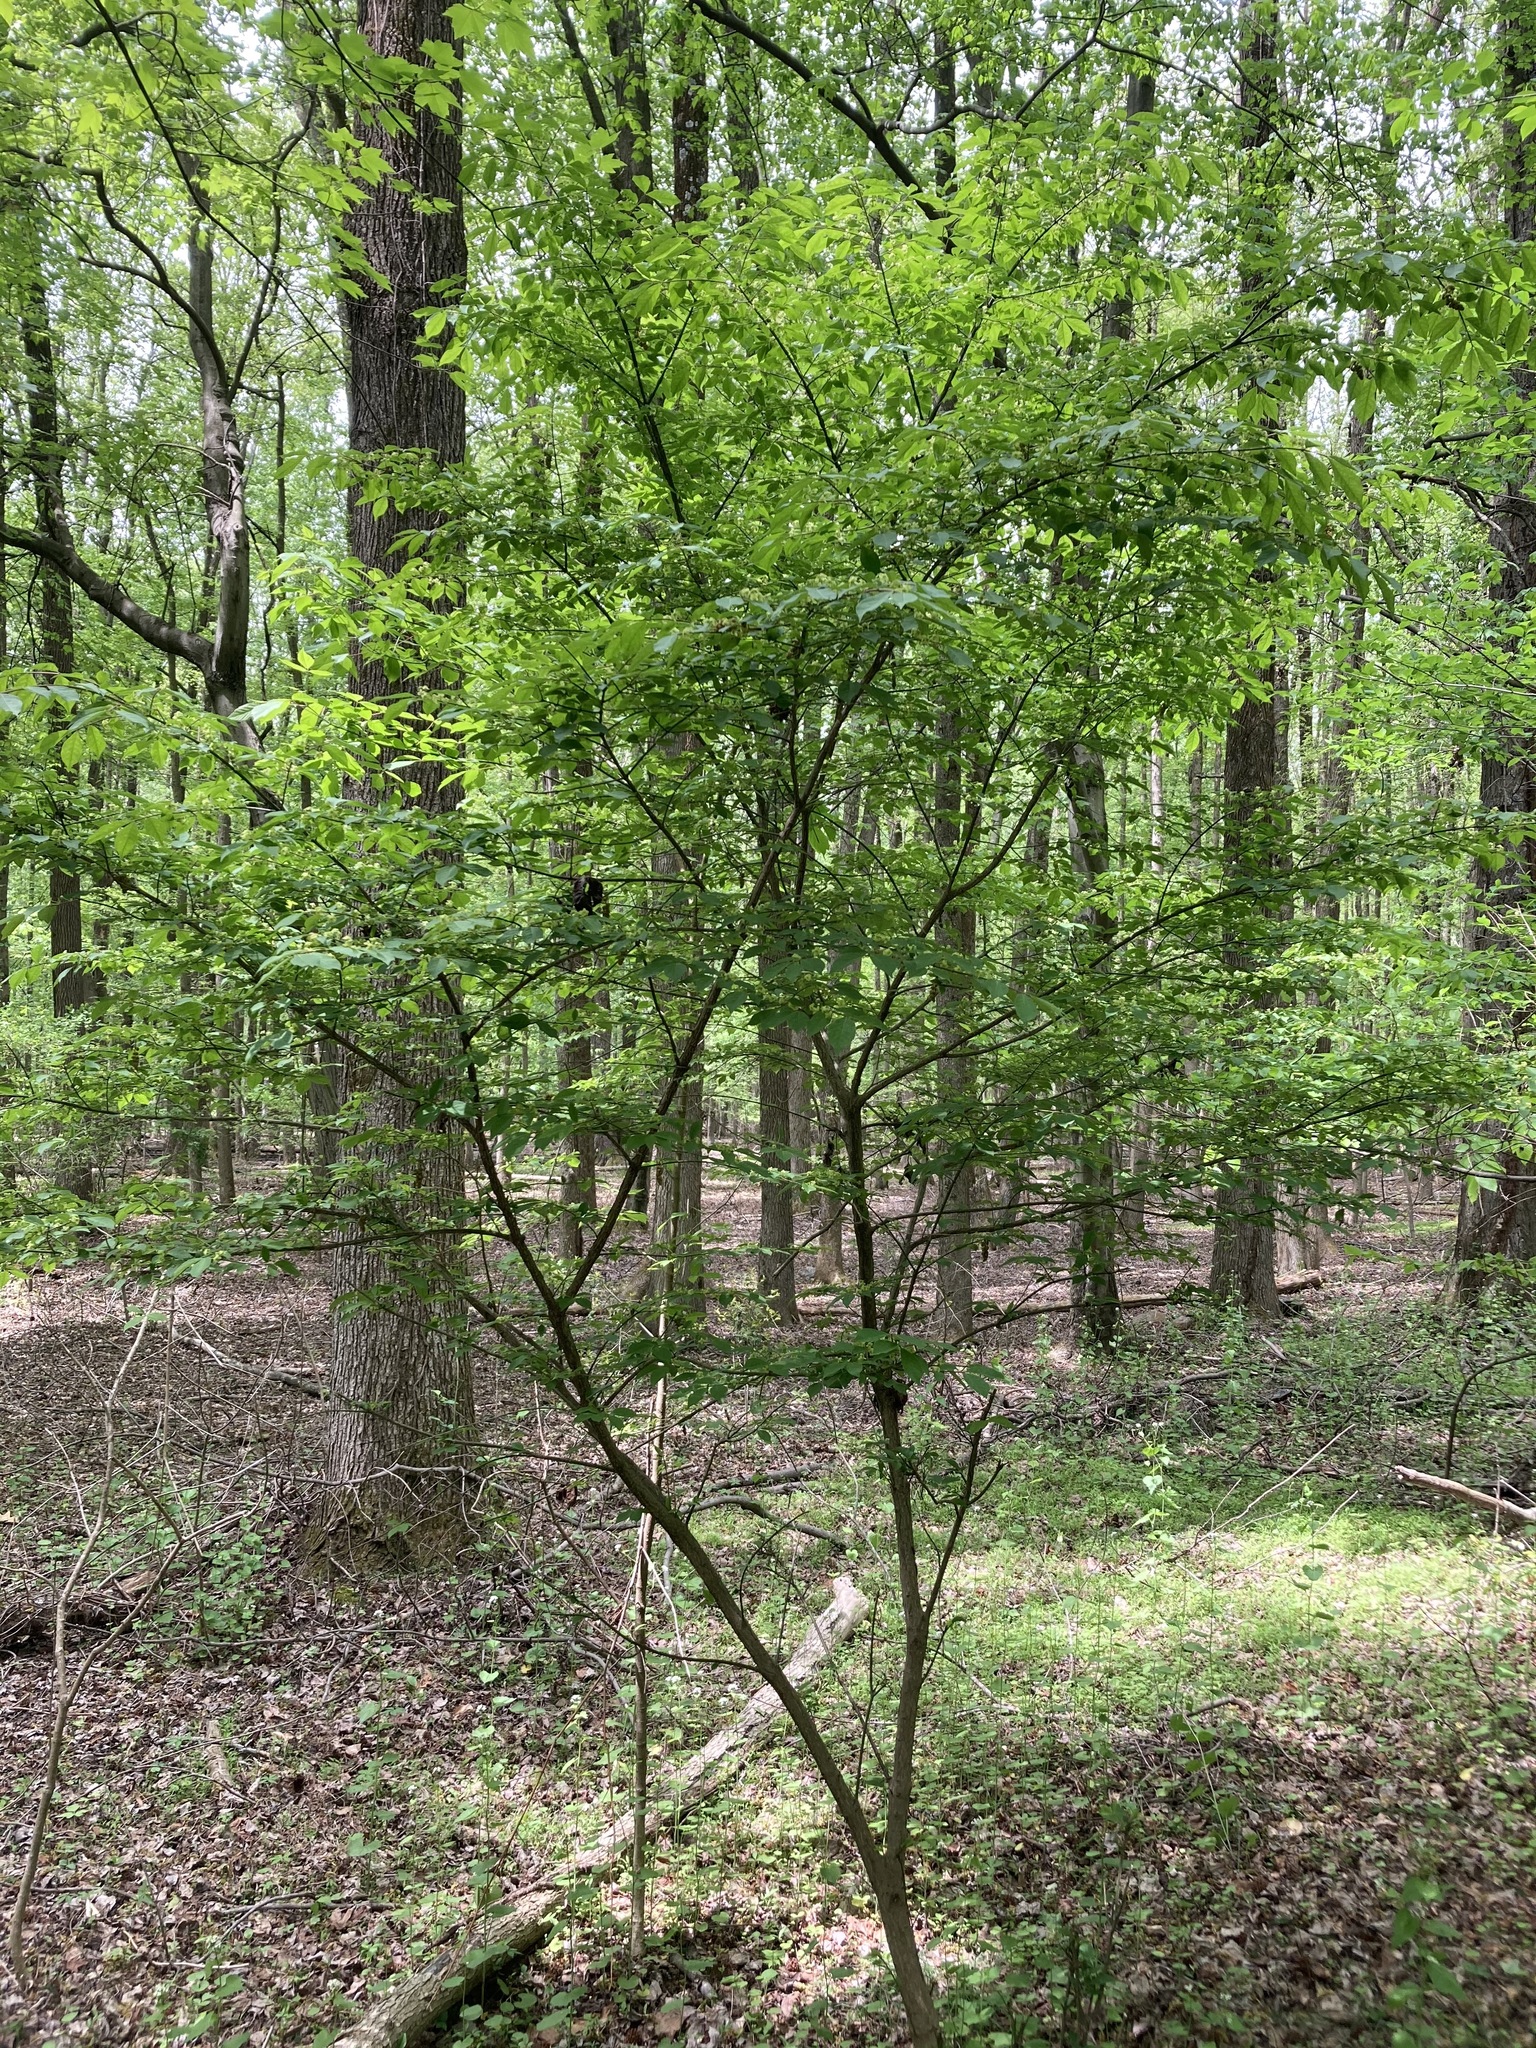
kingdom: Plantae
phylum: Tracheophyta
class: Magnoliopsida
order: Celastrales
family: Celastraceae
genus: Euonymus
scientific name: Euonymus alatus
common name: Winged euonymus
